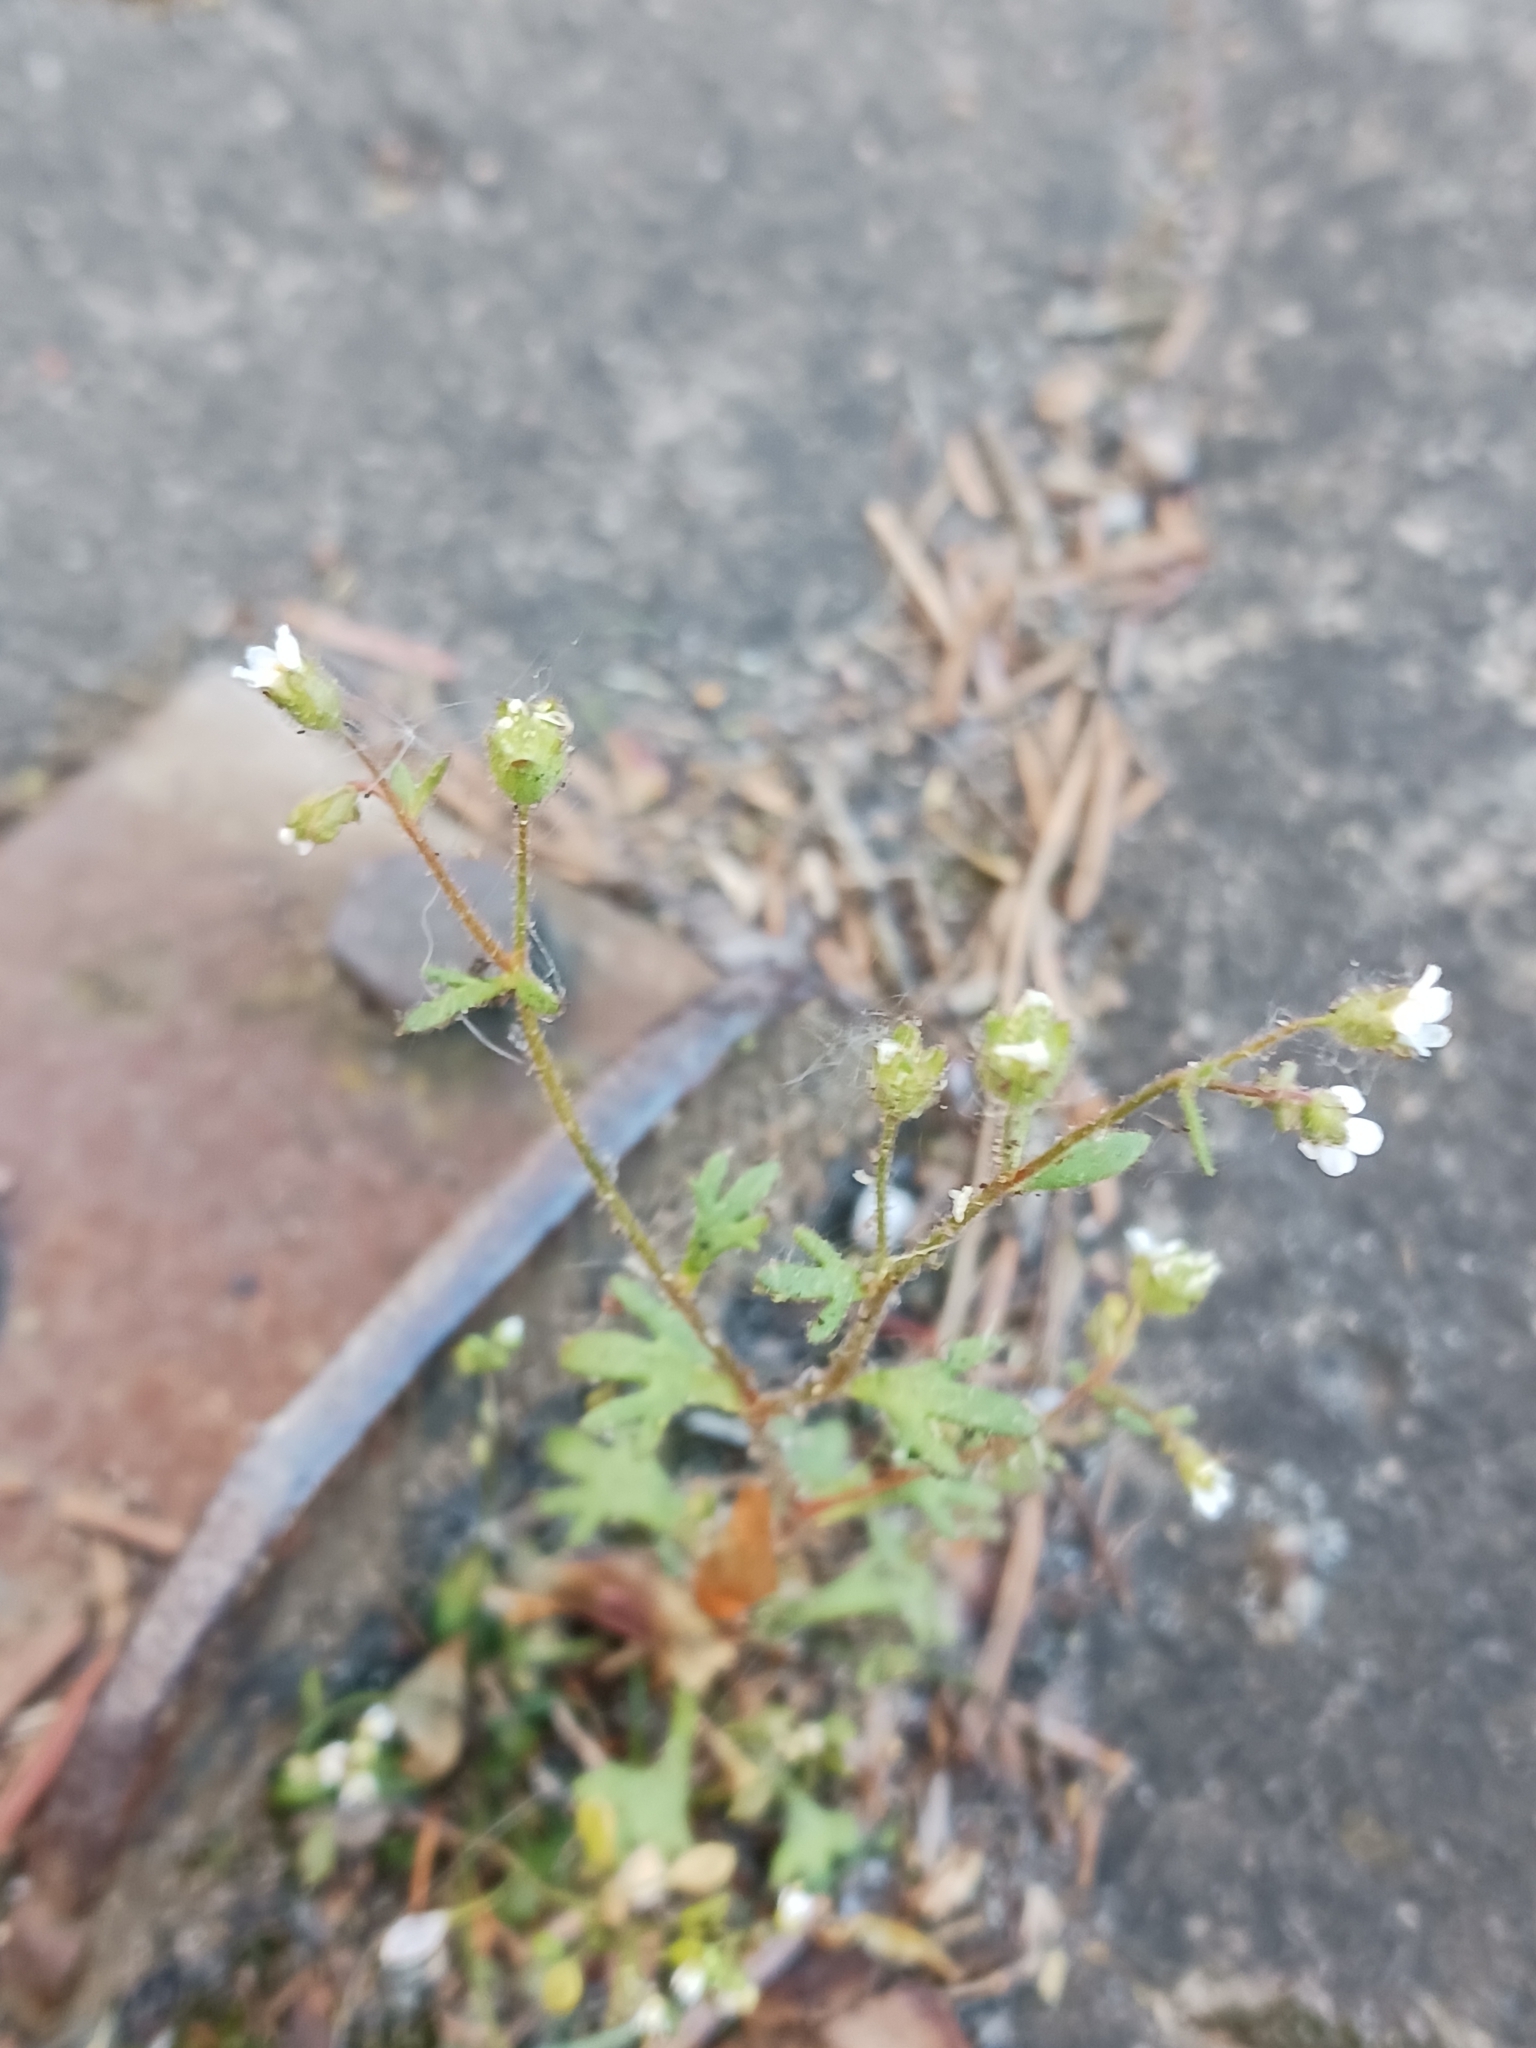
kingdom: Plantae
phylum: Tracheophyta
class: Magnoliopsida
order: Saxifragales
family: Saxifragaceae
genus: Saxifraga
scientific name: Saxifraga tridactylites
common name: Rue-leaved saxifrage
